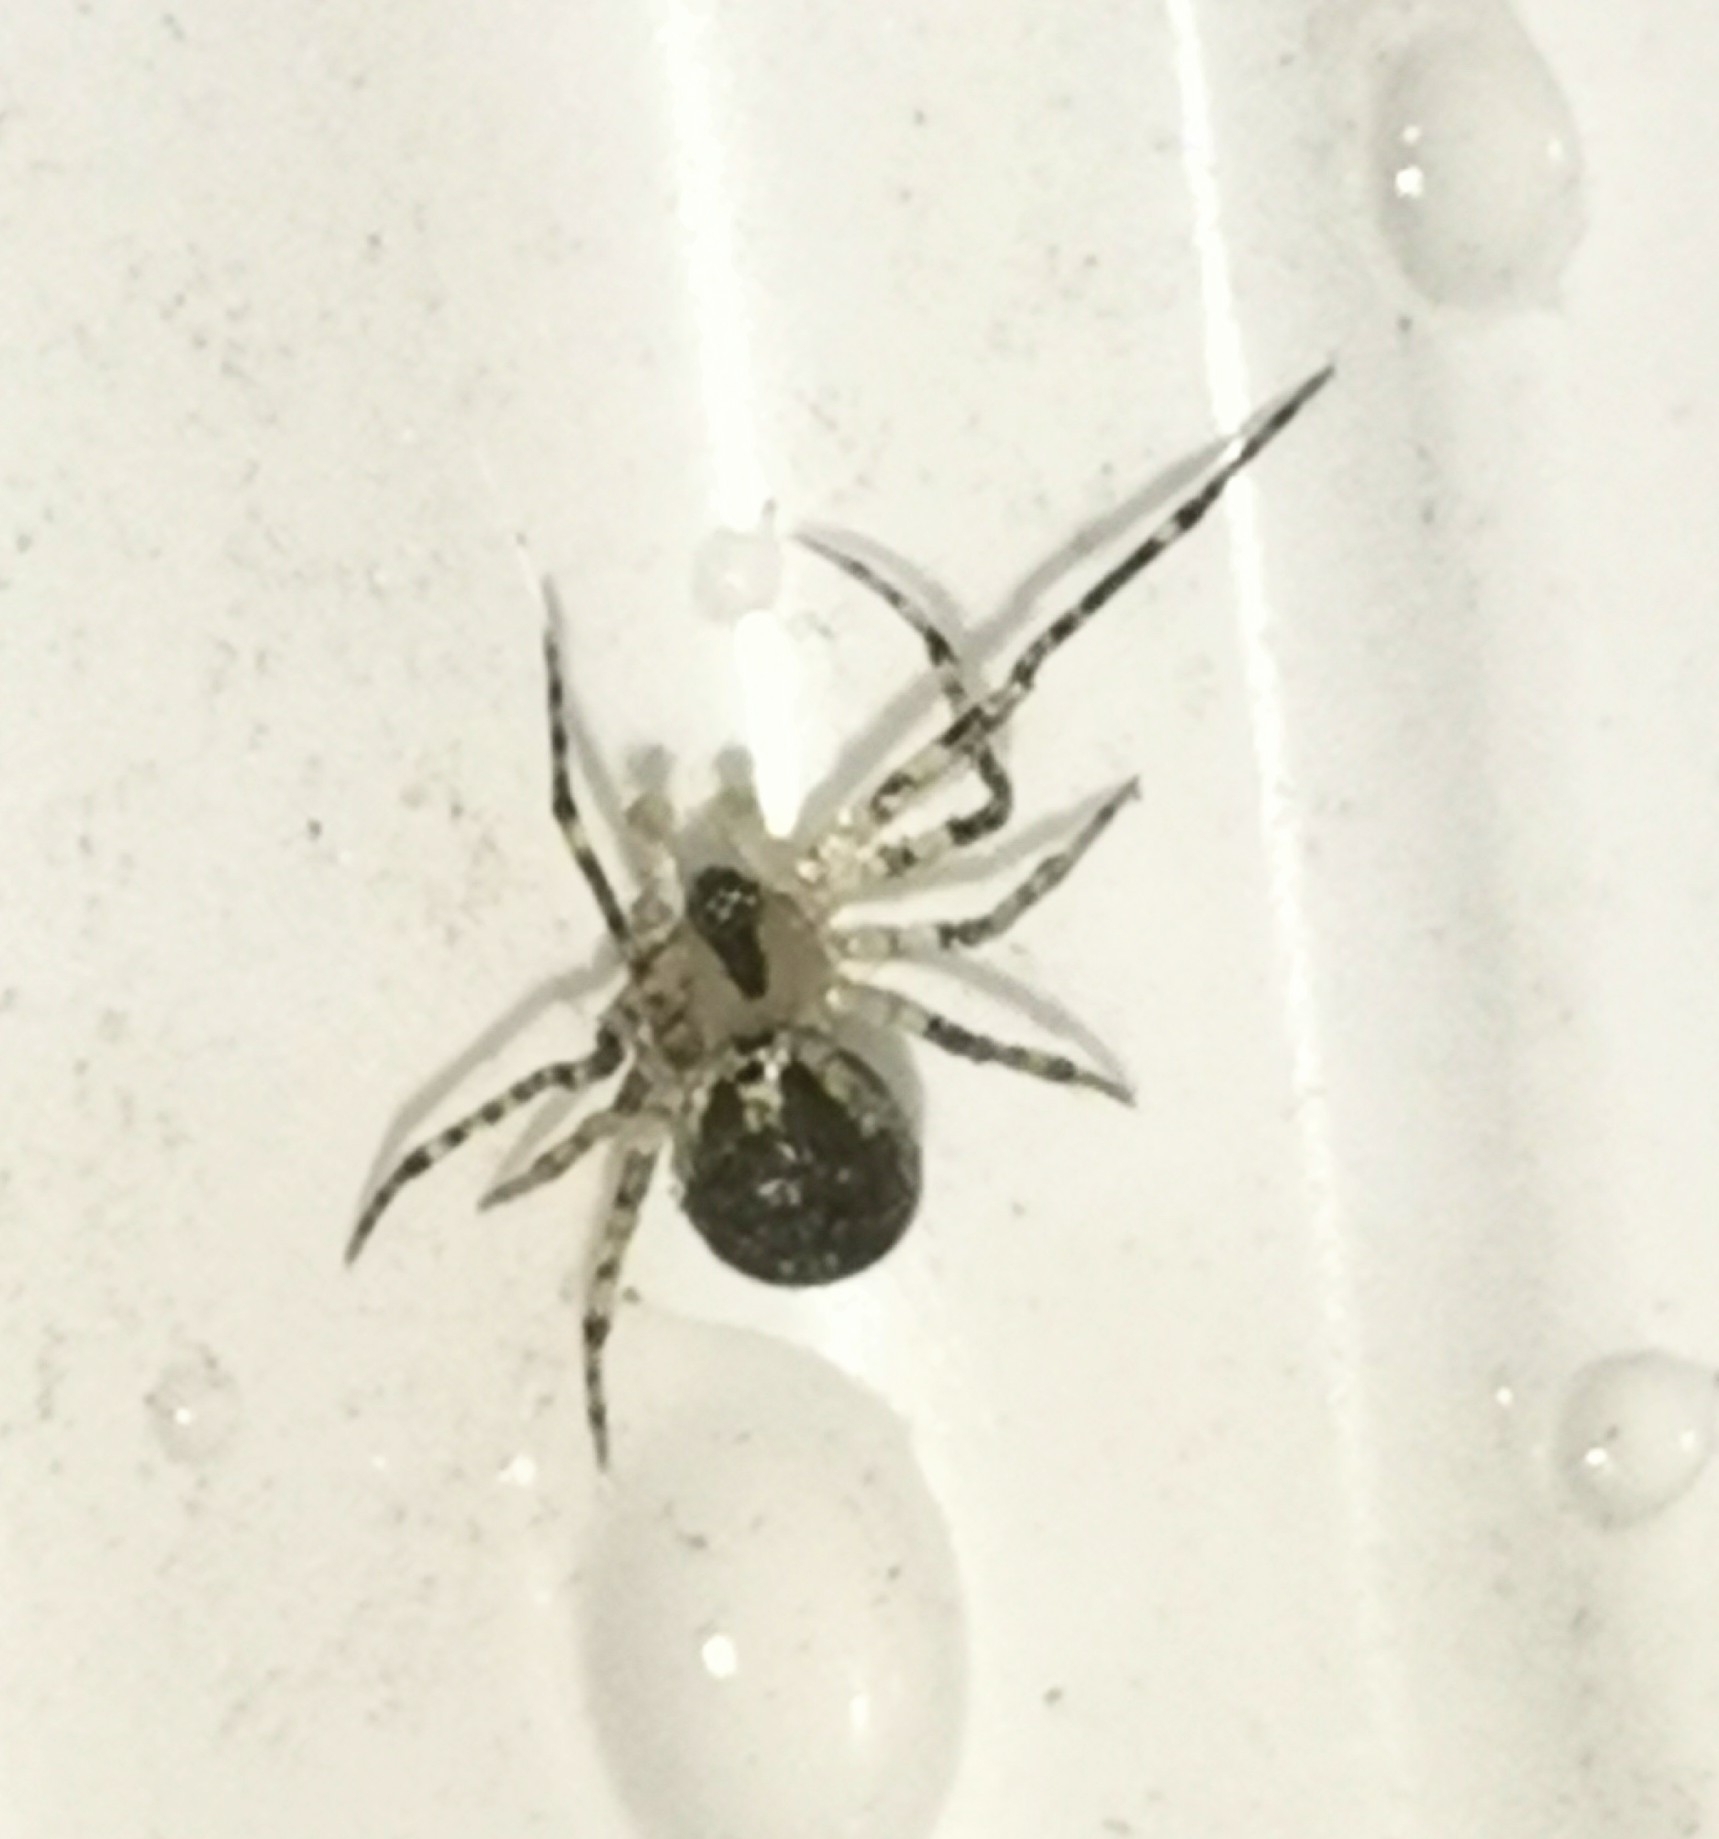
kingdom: Animalia
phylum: Arthropoda
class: Arachnida
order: Araneae
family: Theridiidae
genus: Platnickina
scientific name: Platnickina tincta
